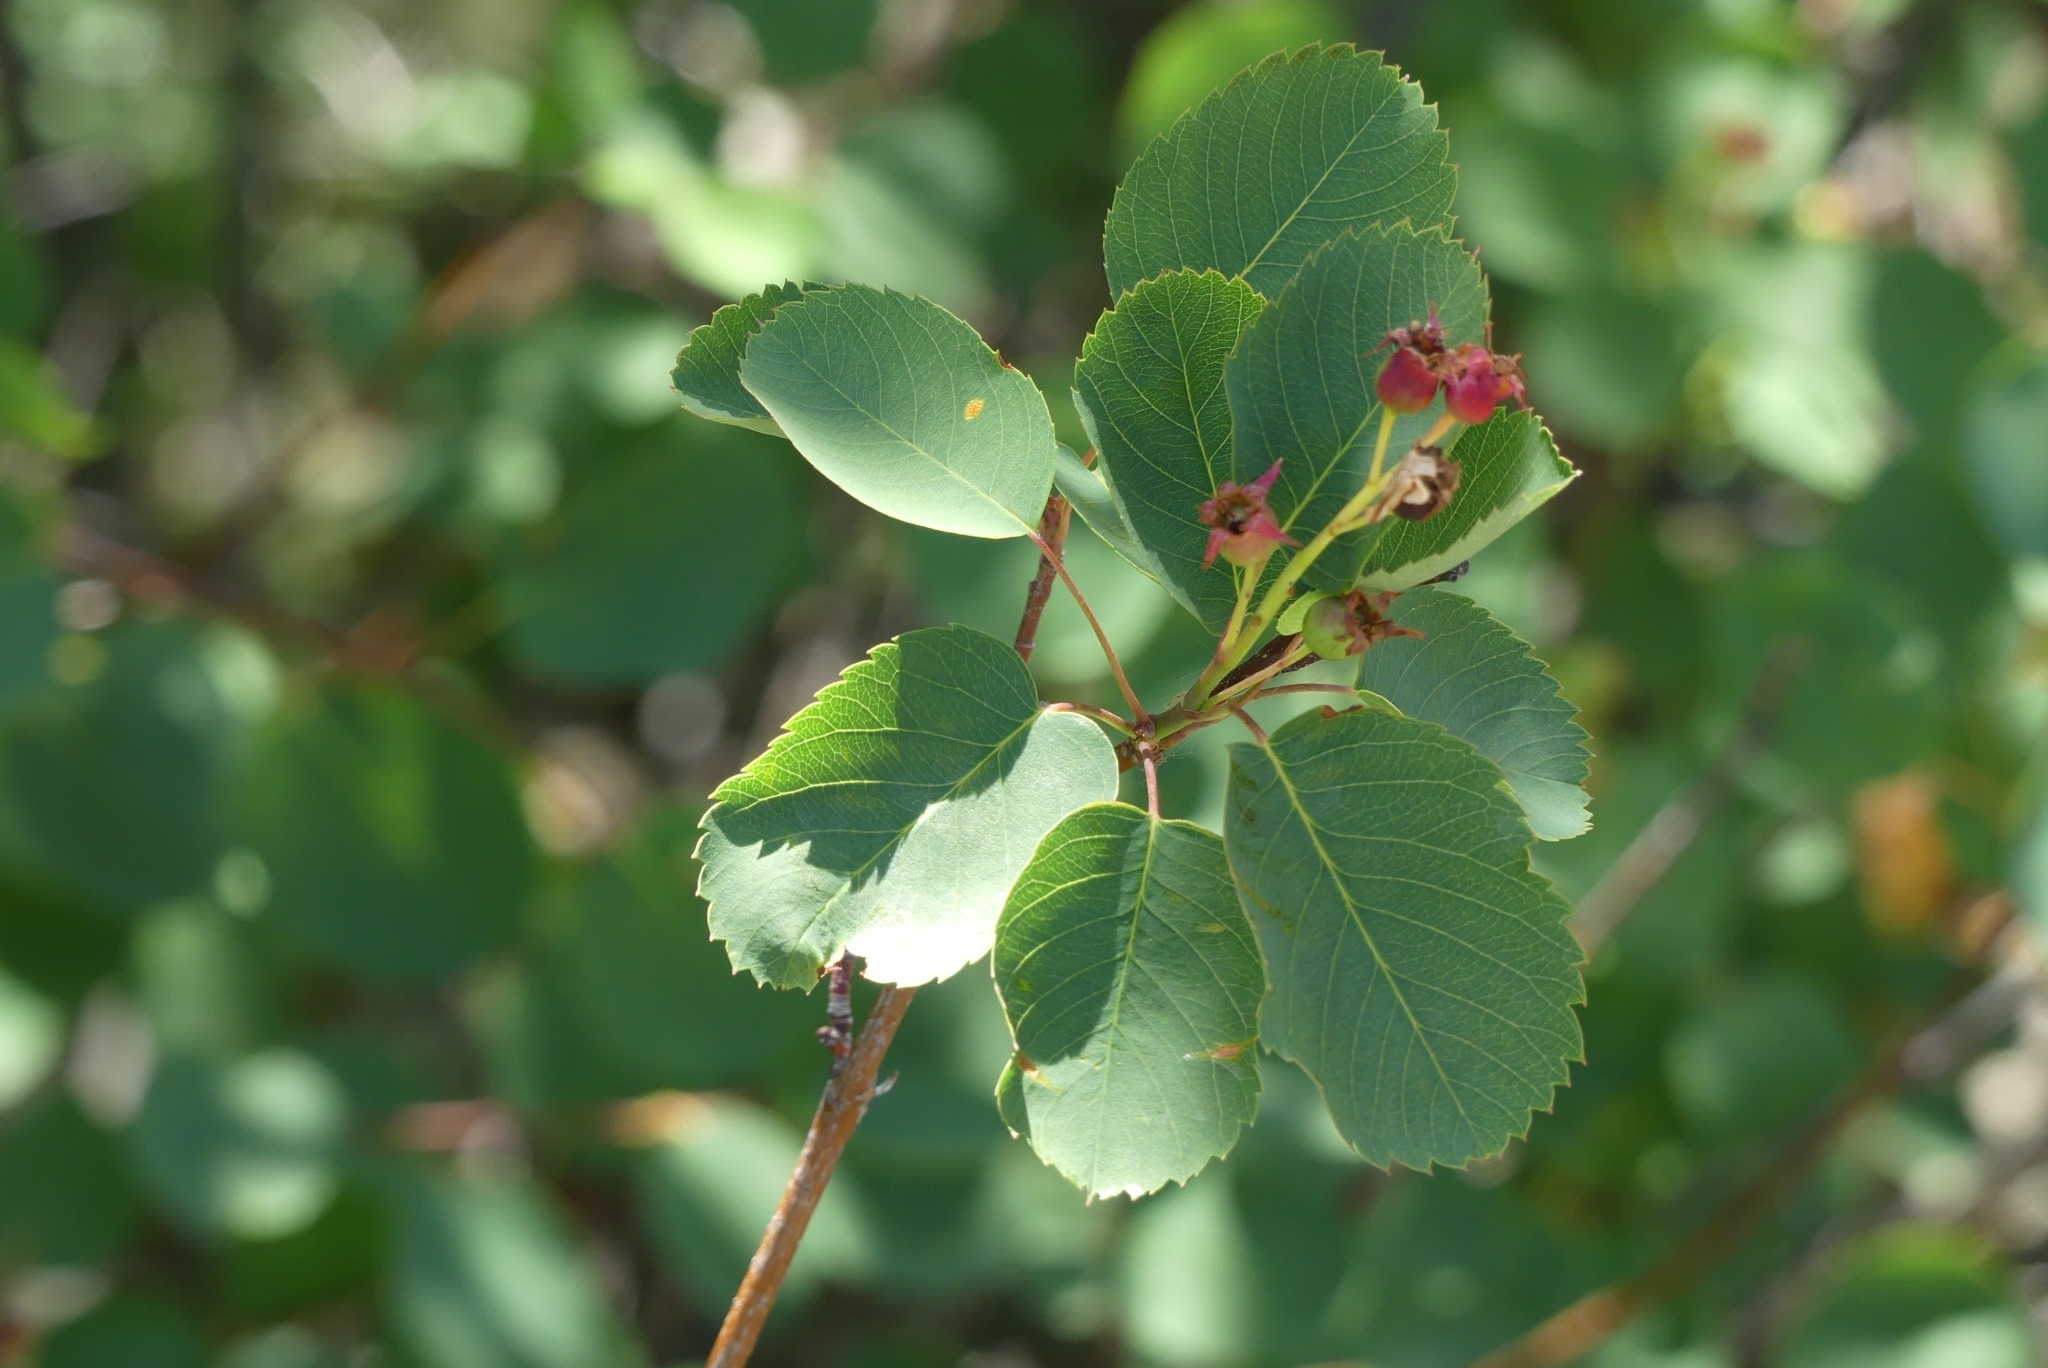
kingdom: Plantae
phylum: Tracheophyta
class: Magnoliopsida
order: Rosales
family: Rosaceae
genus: Amelanchier
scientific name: Amelanchier alnifolia
